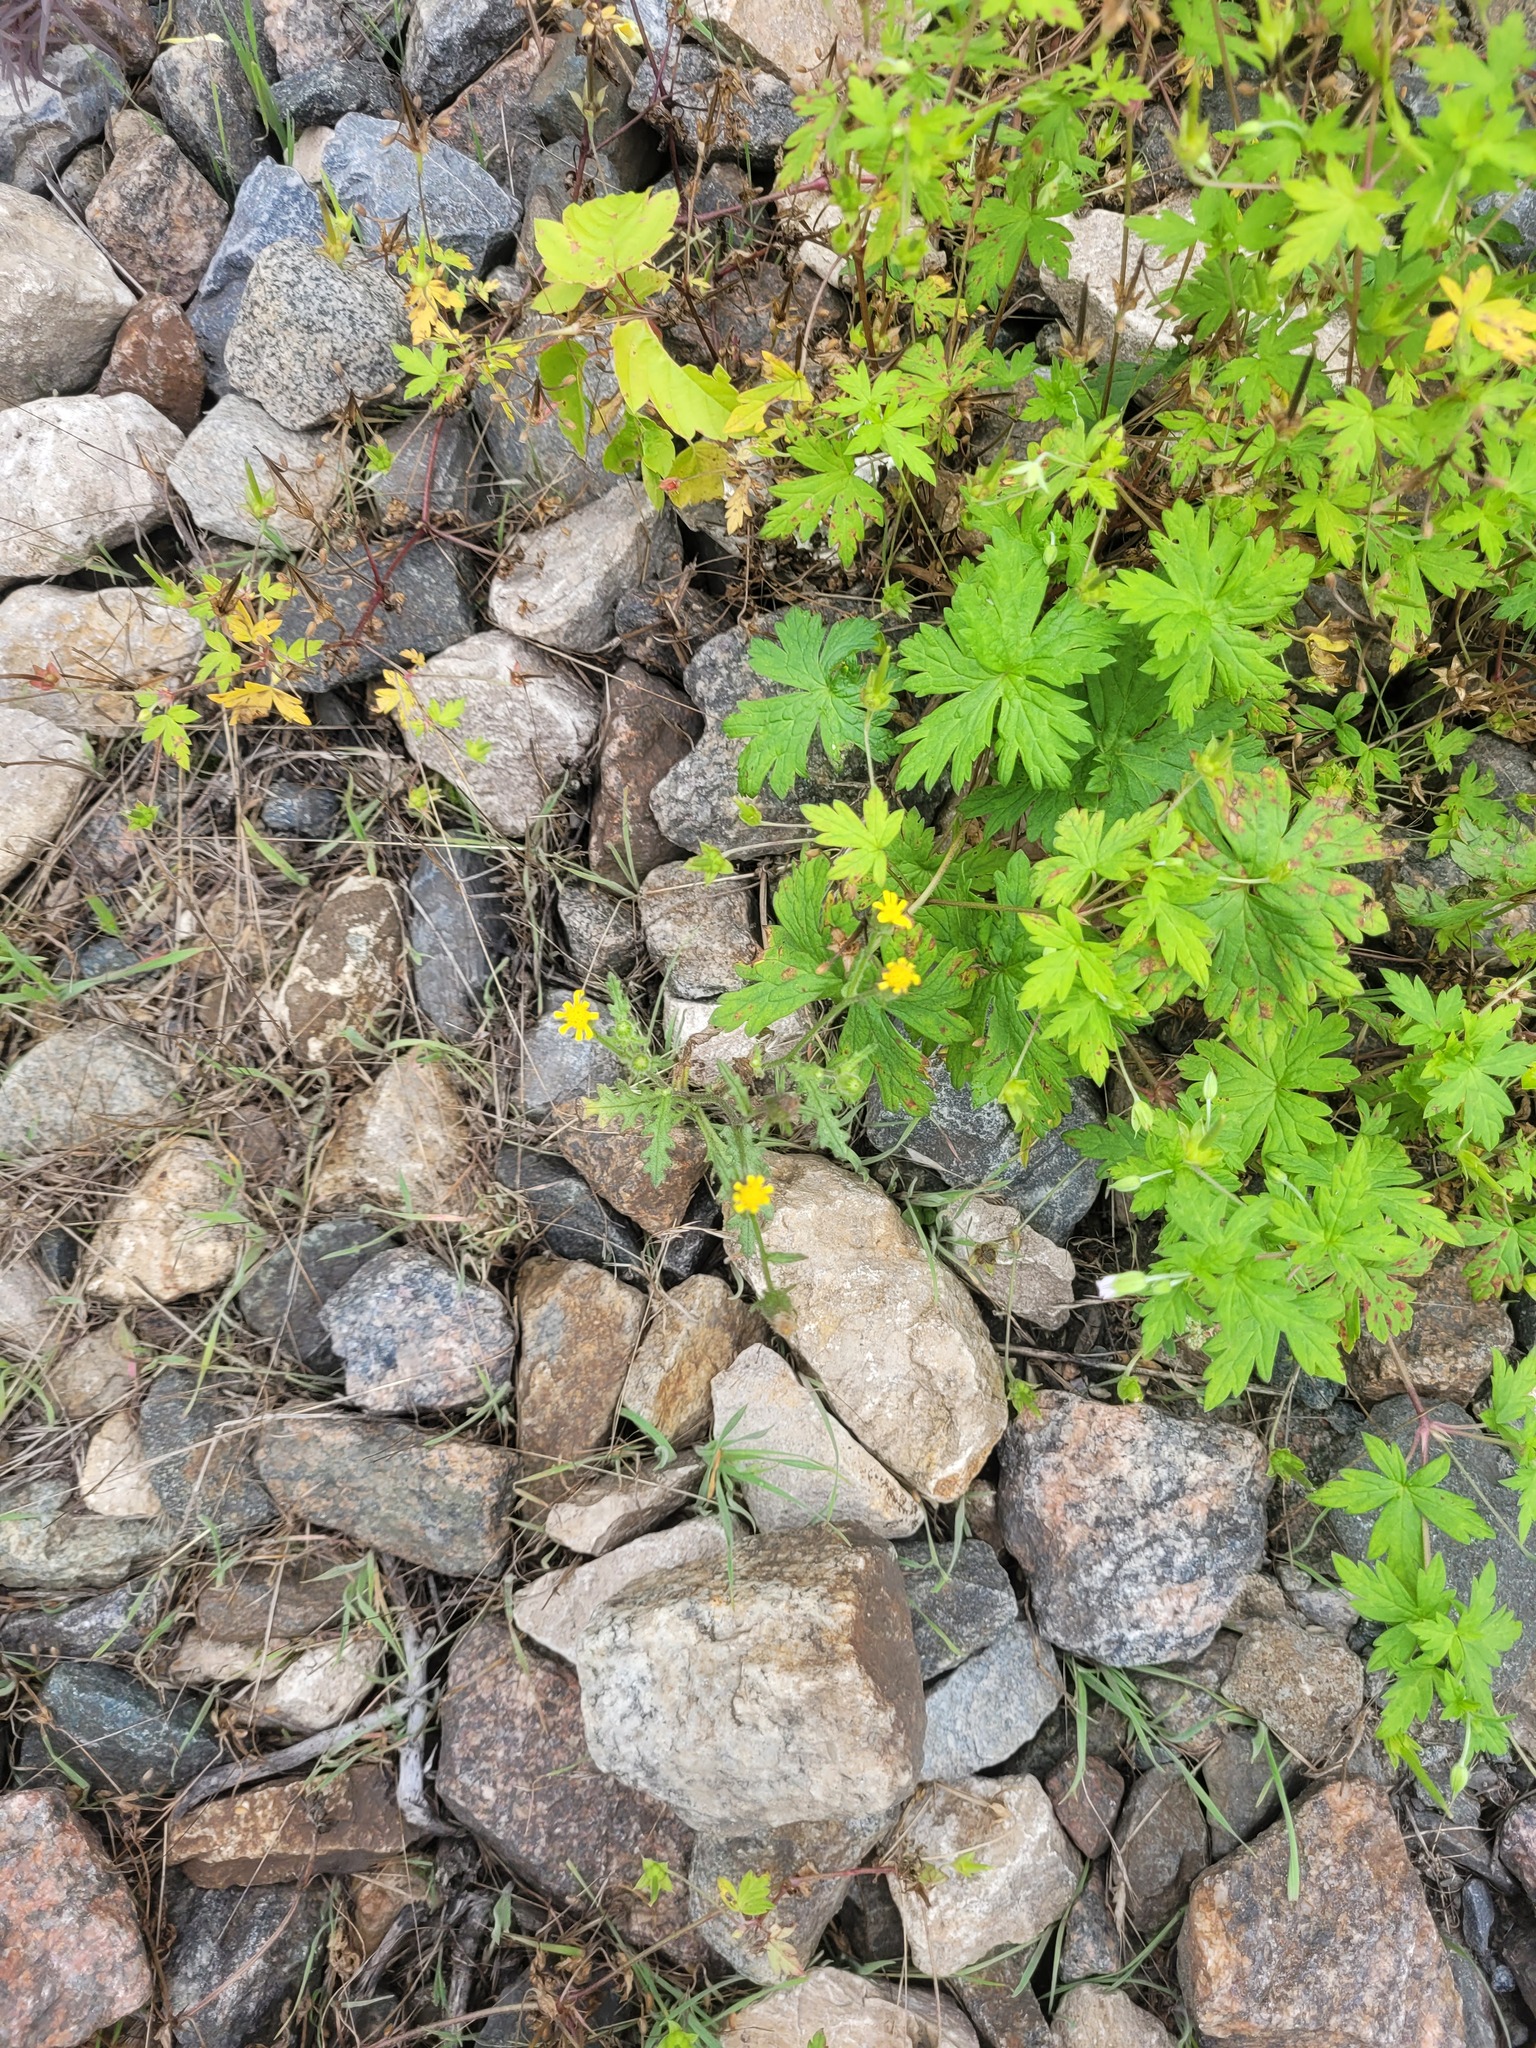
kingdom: Plantae
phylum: Tracheophyta
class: Magnoliopsida
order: Asterales
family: Asteraceae
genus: Senecio
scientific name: Senecio viscosus
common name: Sticky groundsel
